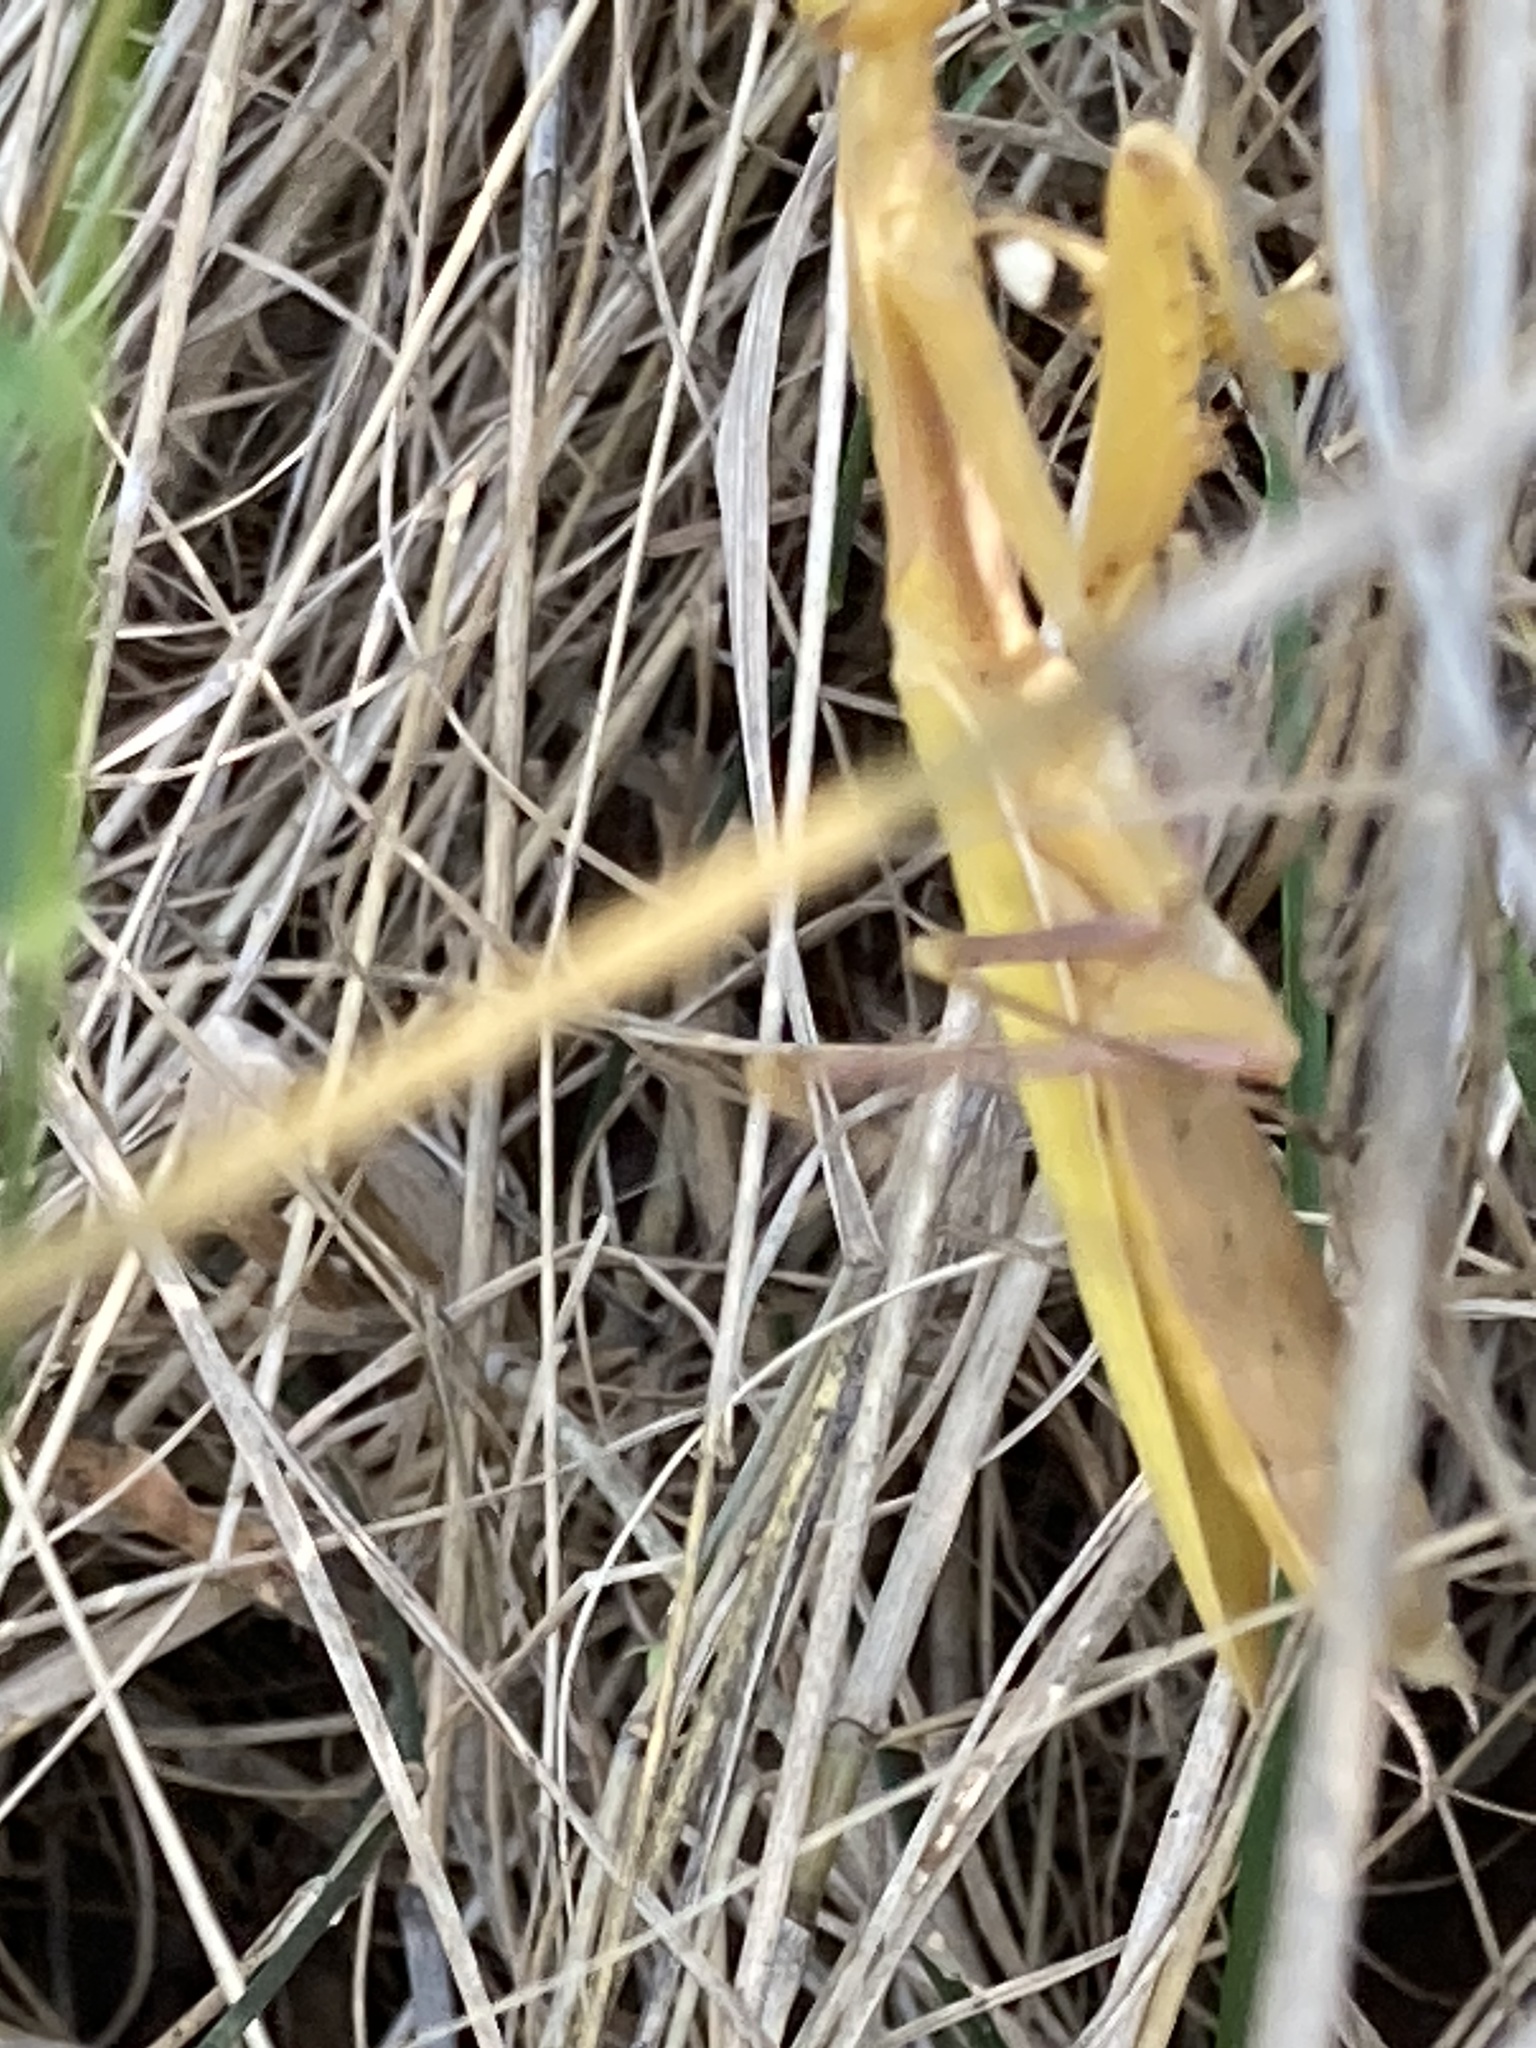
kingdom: Animalia
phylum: Arthropoda
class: Insecta
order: Mantodea
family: Mantidae
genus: Mantis
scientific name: Mantis religiosa
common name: Praying mantis
